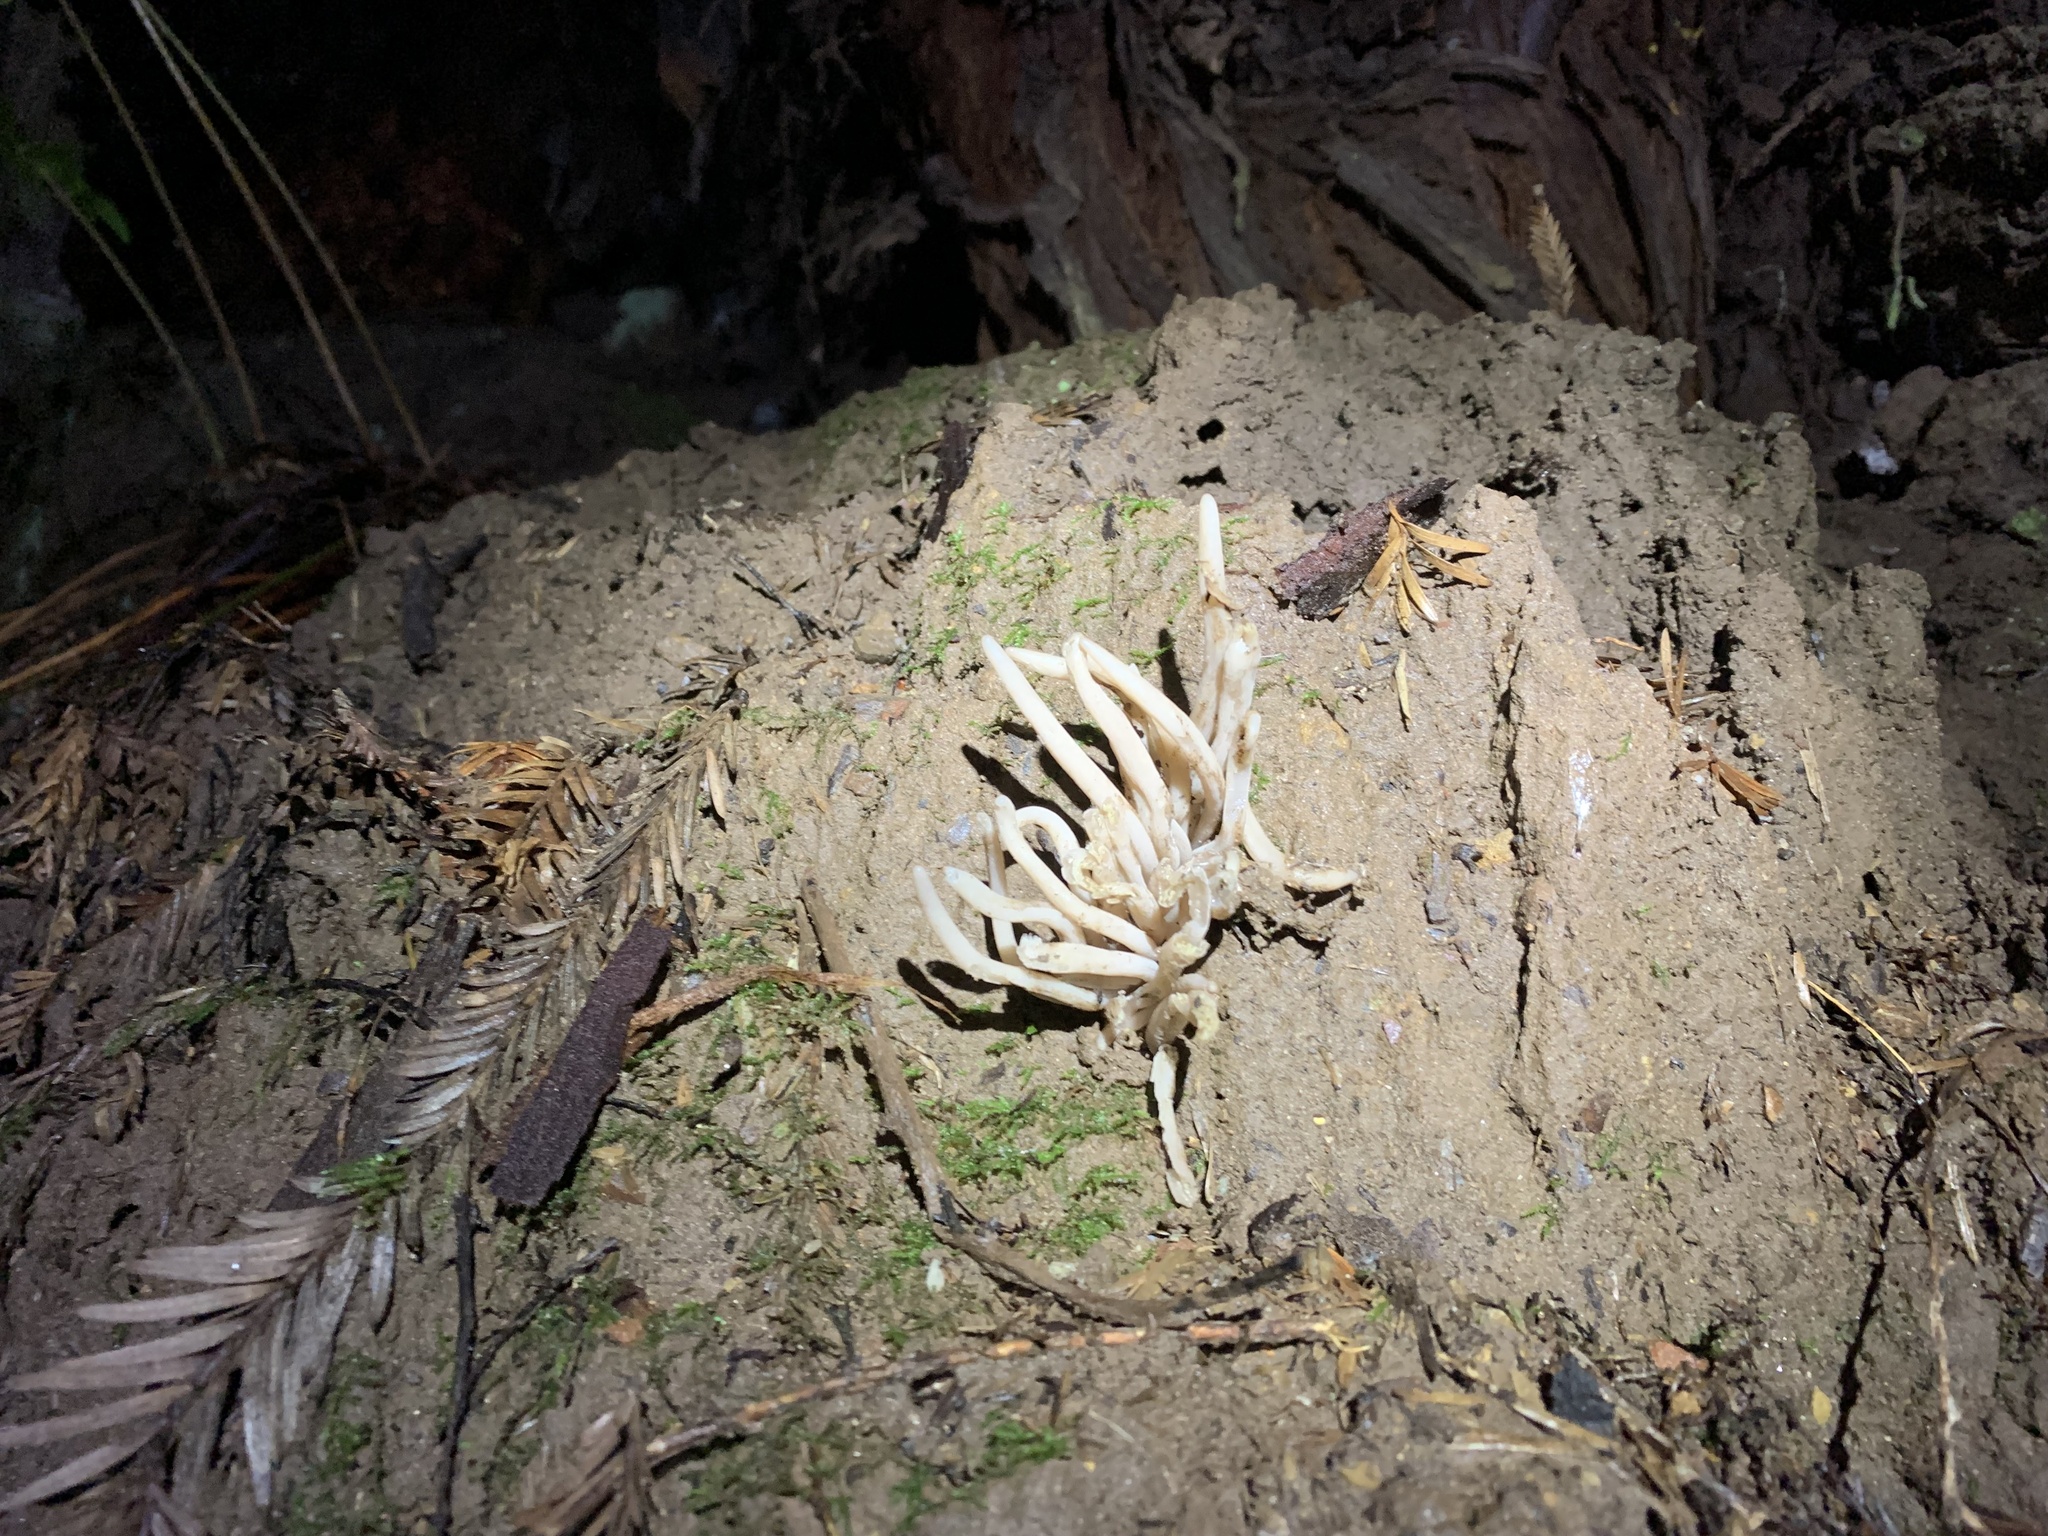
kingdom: Fungi
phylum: Basidiomycota
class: Agaricomycetes
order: Agaricales
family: Clavariaceae
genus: Clavaria
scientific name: Clavaria fragilis
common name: White spindles
